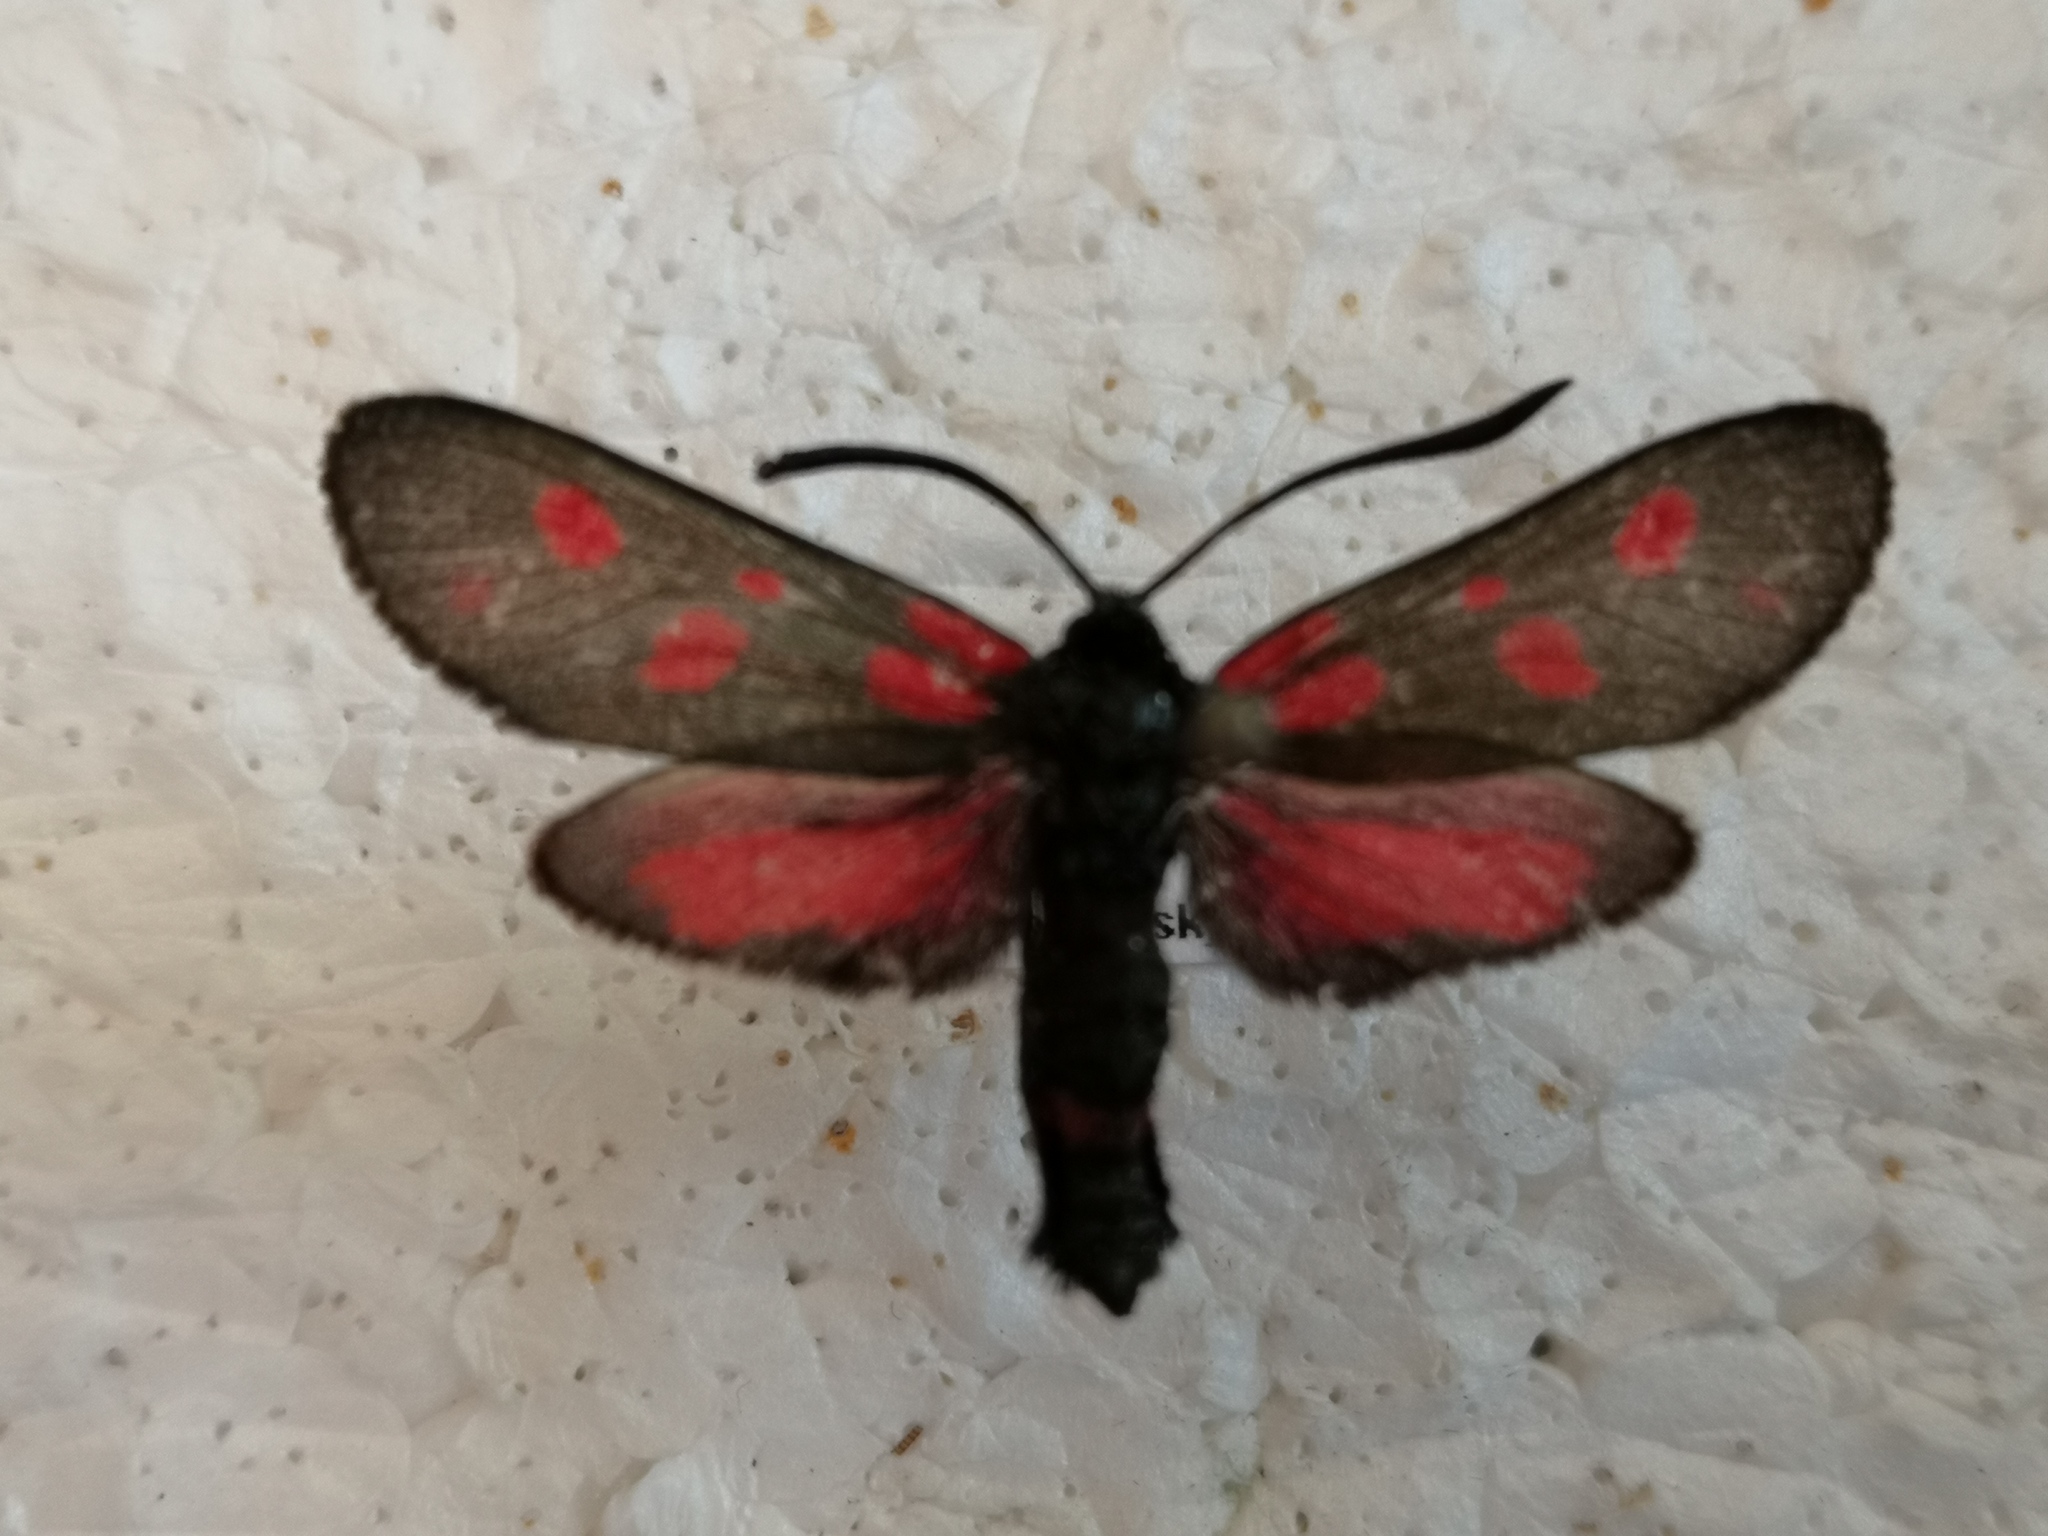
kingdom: Animalia
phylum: Arthropoda
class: Insecta
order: Lepidoptera
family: Zygaenidae
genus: Zygaena
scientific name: Zygaena viciae
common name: New forest burnet
